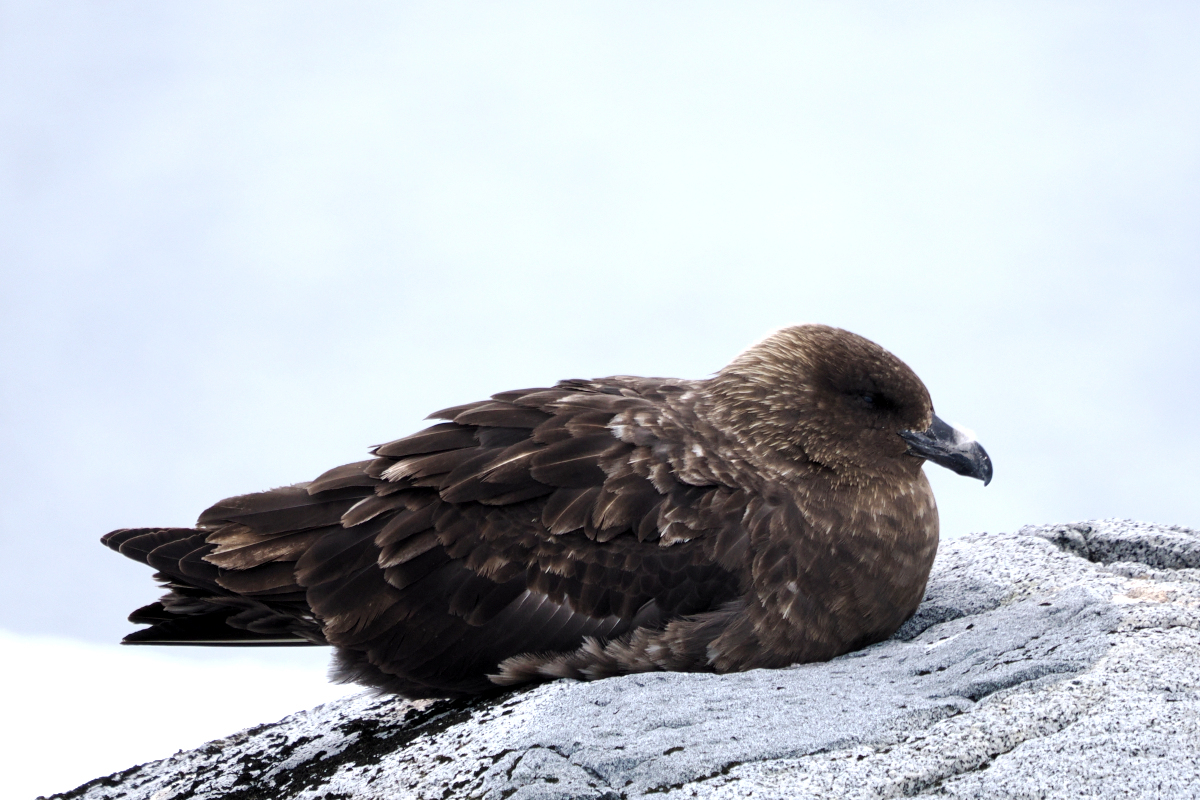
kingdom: Animalia
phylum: Chordata
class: Aves
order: Charadriiformes
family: Stercorariidae
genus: Stercorarius
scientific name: Stercorarius antarcticus
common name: Brown skua
